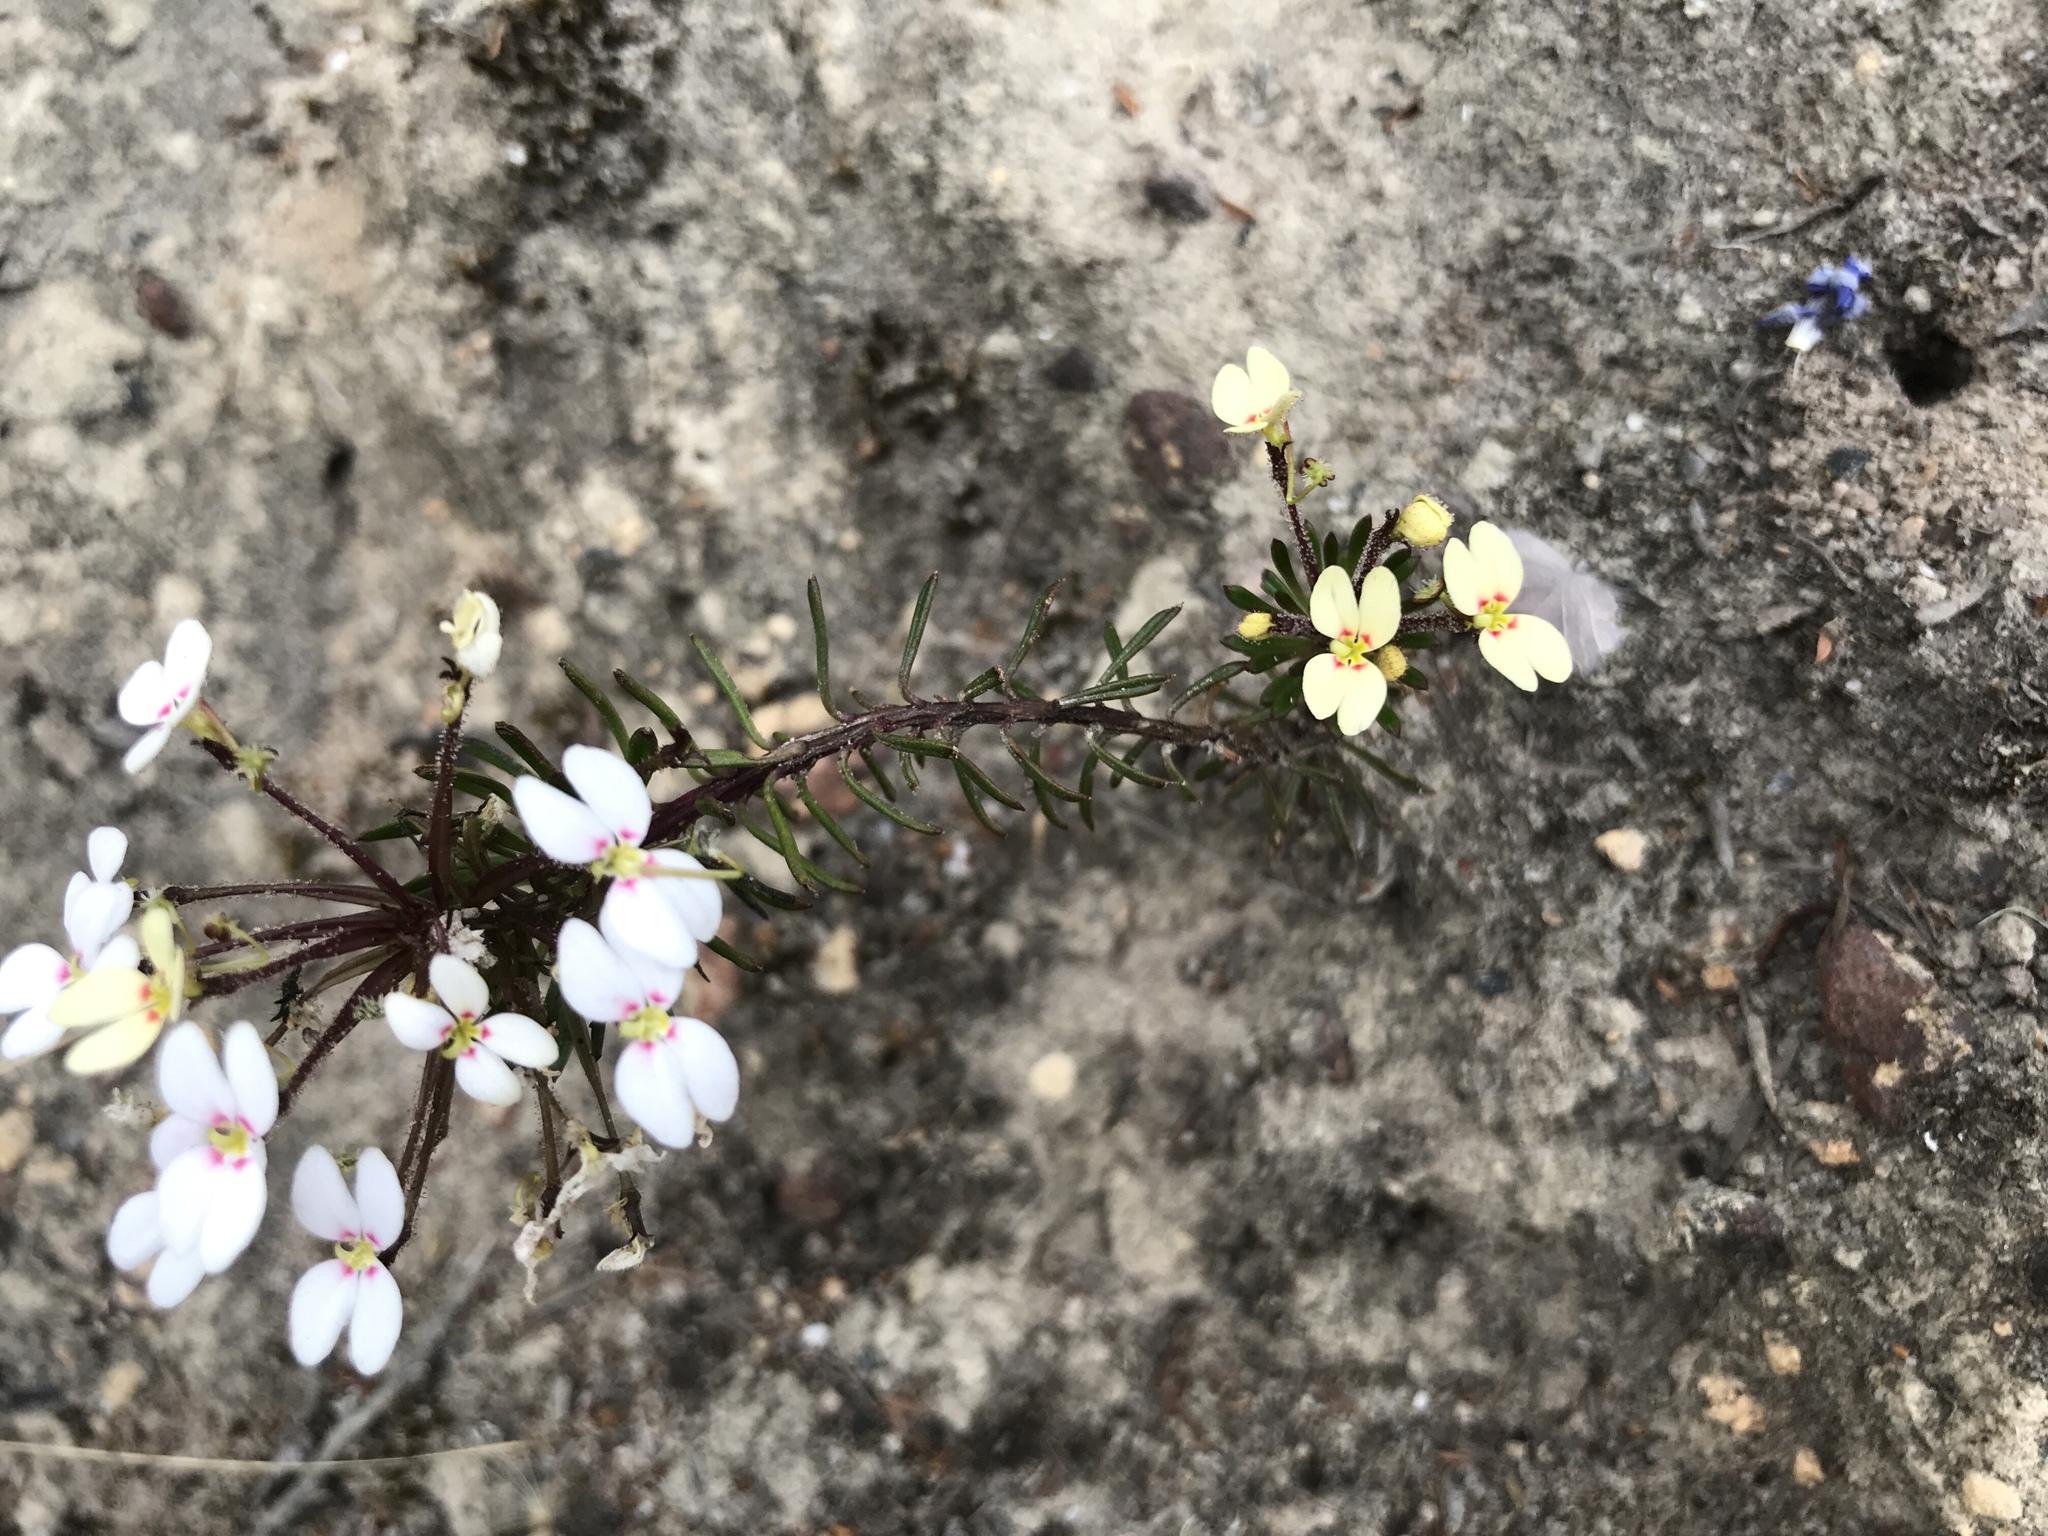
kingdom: Plantae
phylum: Tracheophyta
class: Magnoliopsida
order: Asterales
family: Stylidiaceae
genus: Stylidium
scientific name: Stylidium rhynchocarpum
